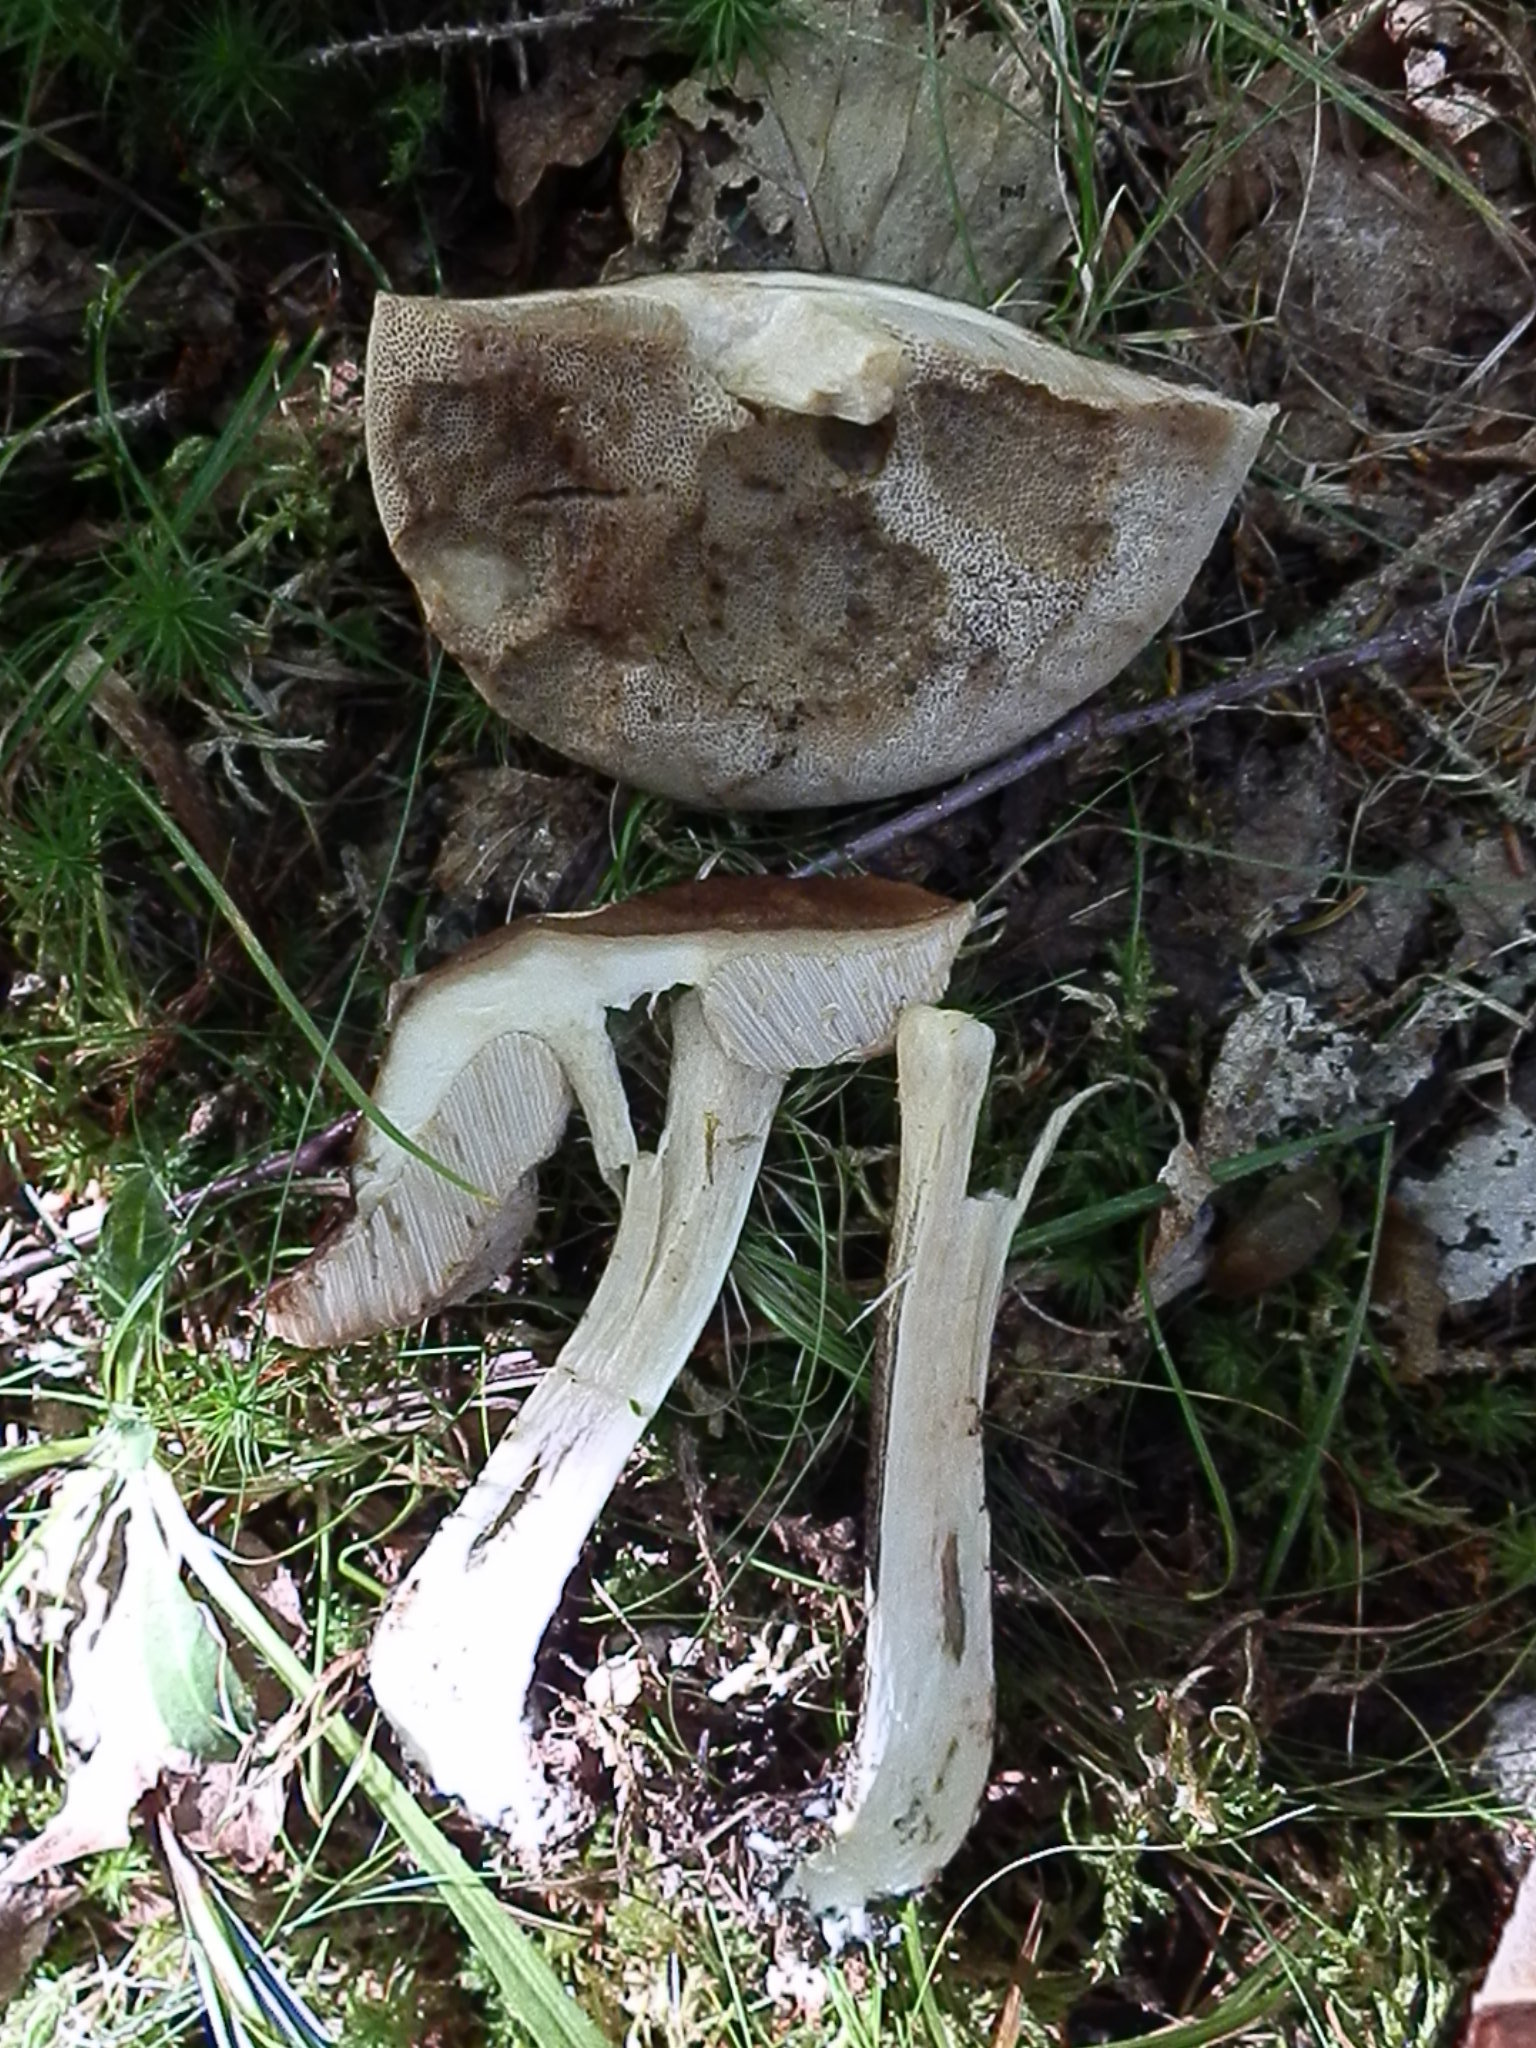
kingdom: Fungi
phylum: Basidiomycota
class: Agaricomycetes
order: Boletales
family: Boletaceae
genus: Leccinum
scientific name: Leccinum scabrum
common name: Blushing bolete
